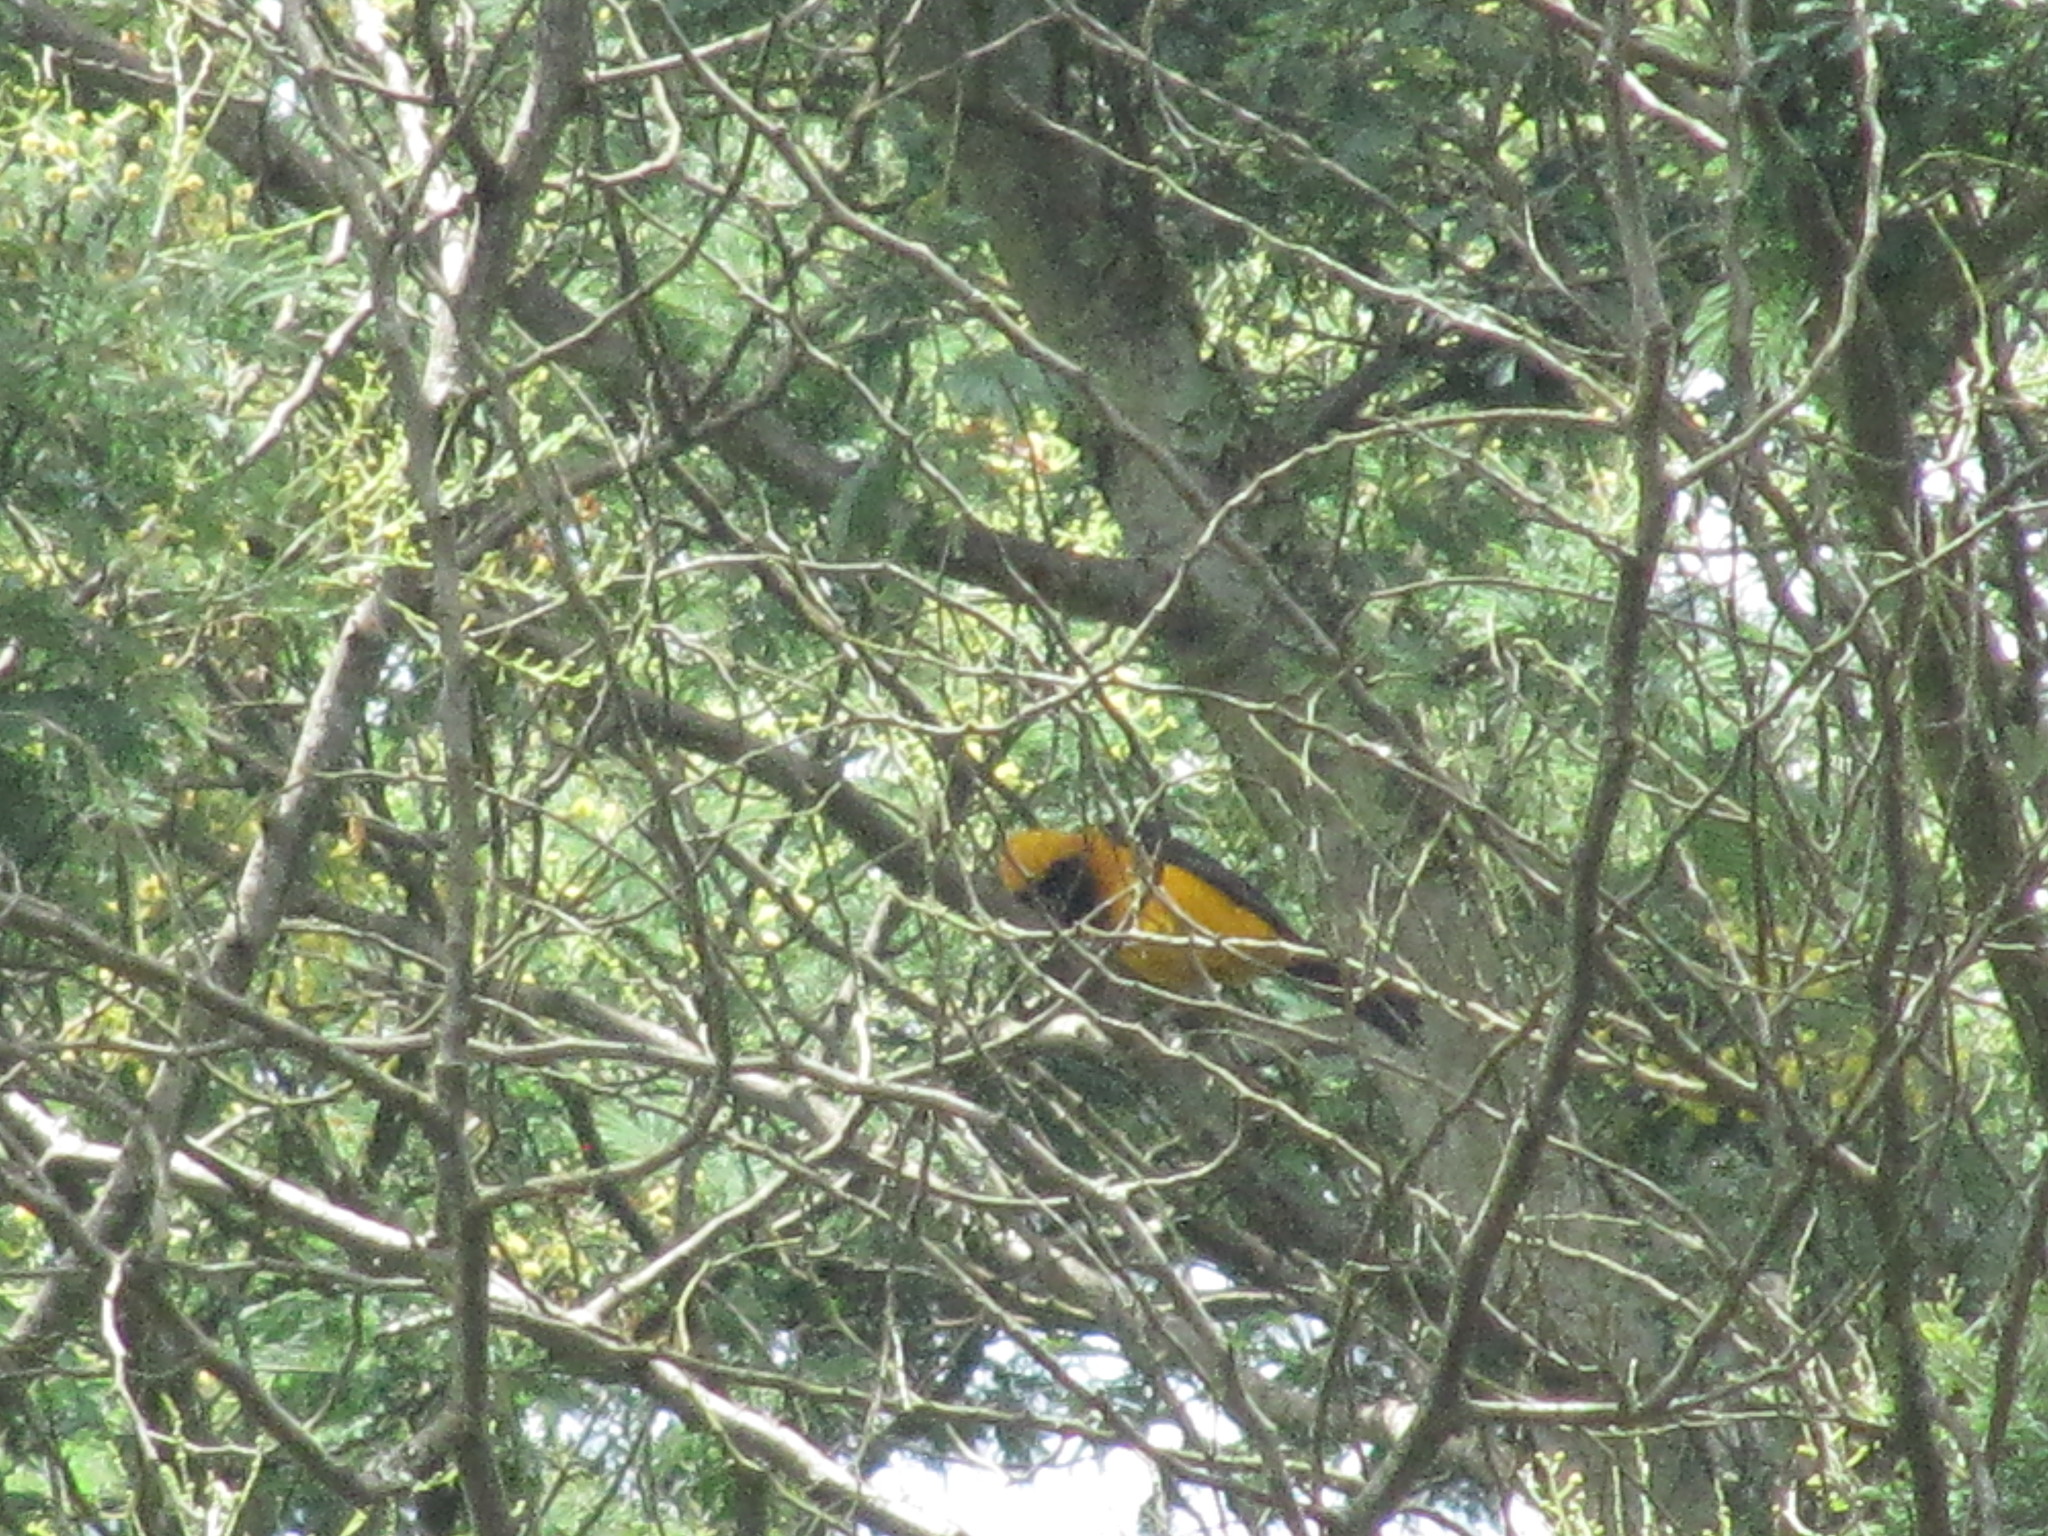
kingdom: Animalia
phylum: Chordata
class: Aves
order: Passeriformes
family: Icteridae
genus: Icterus
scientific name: Icterus chrysater
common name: Yellow-backed oriole
